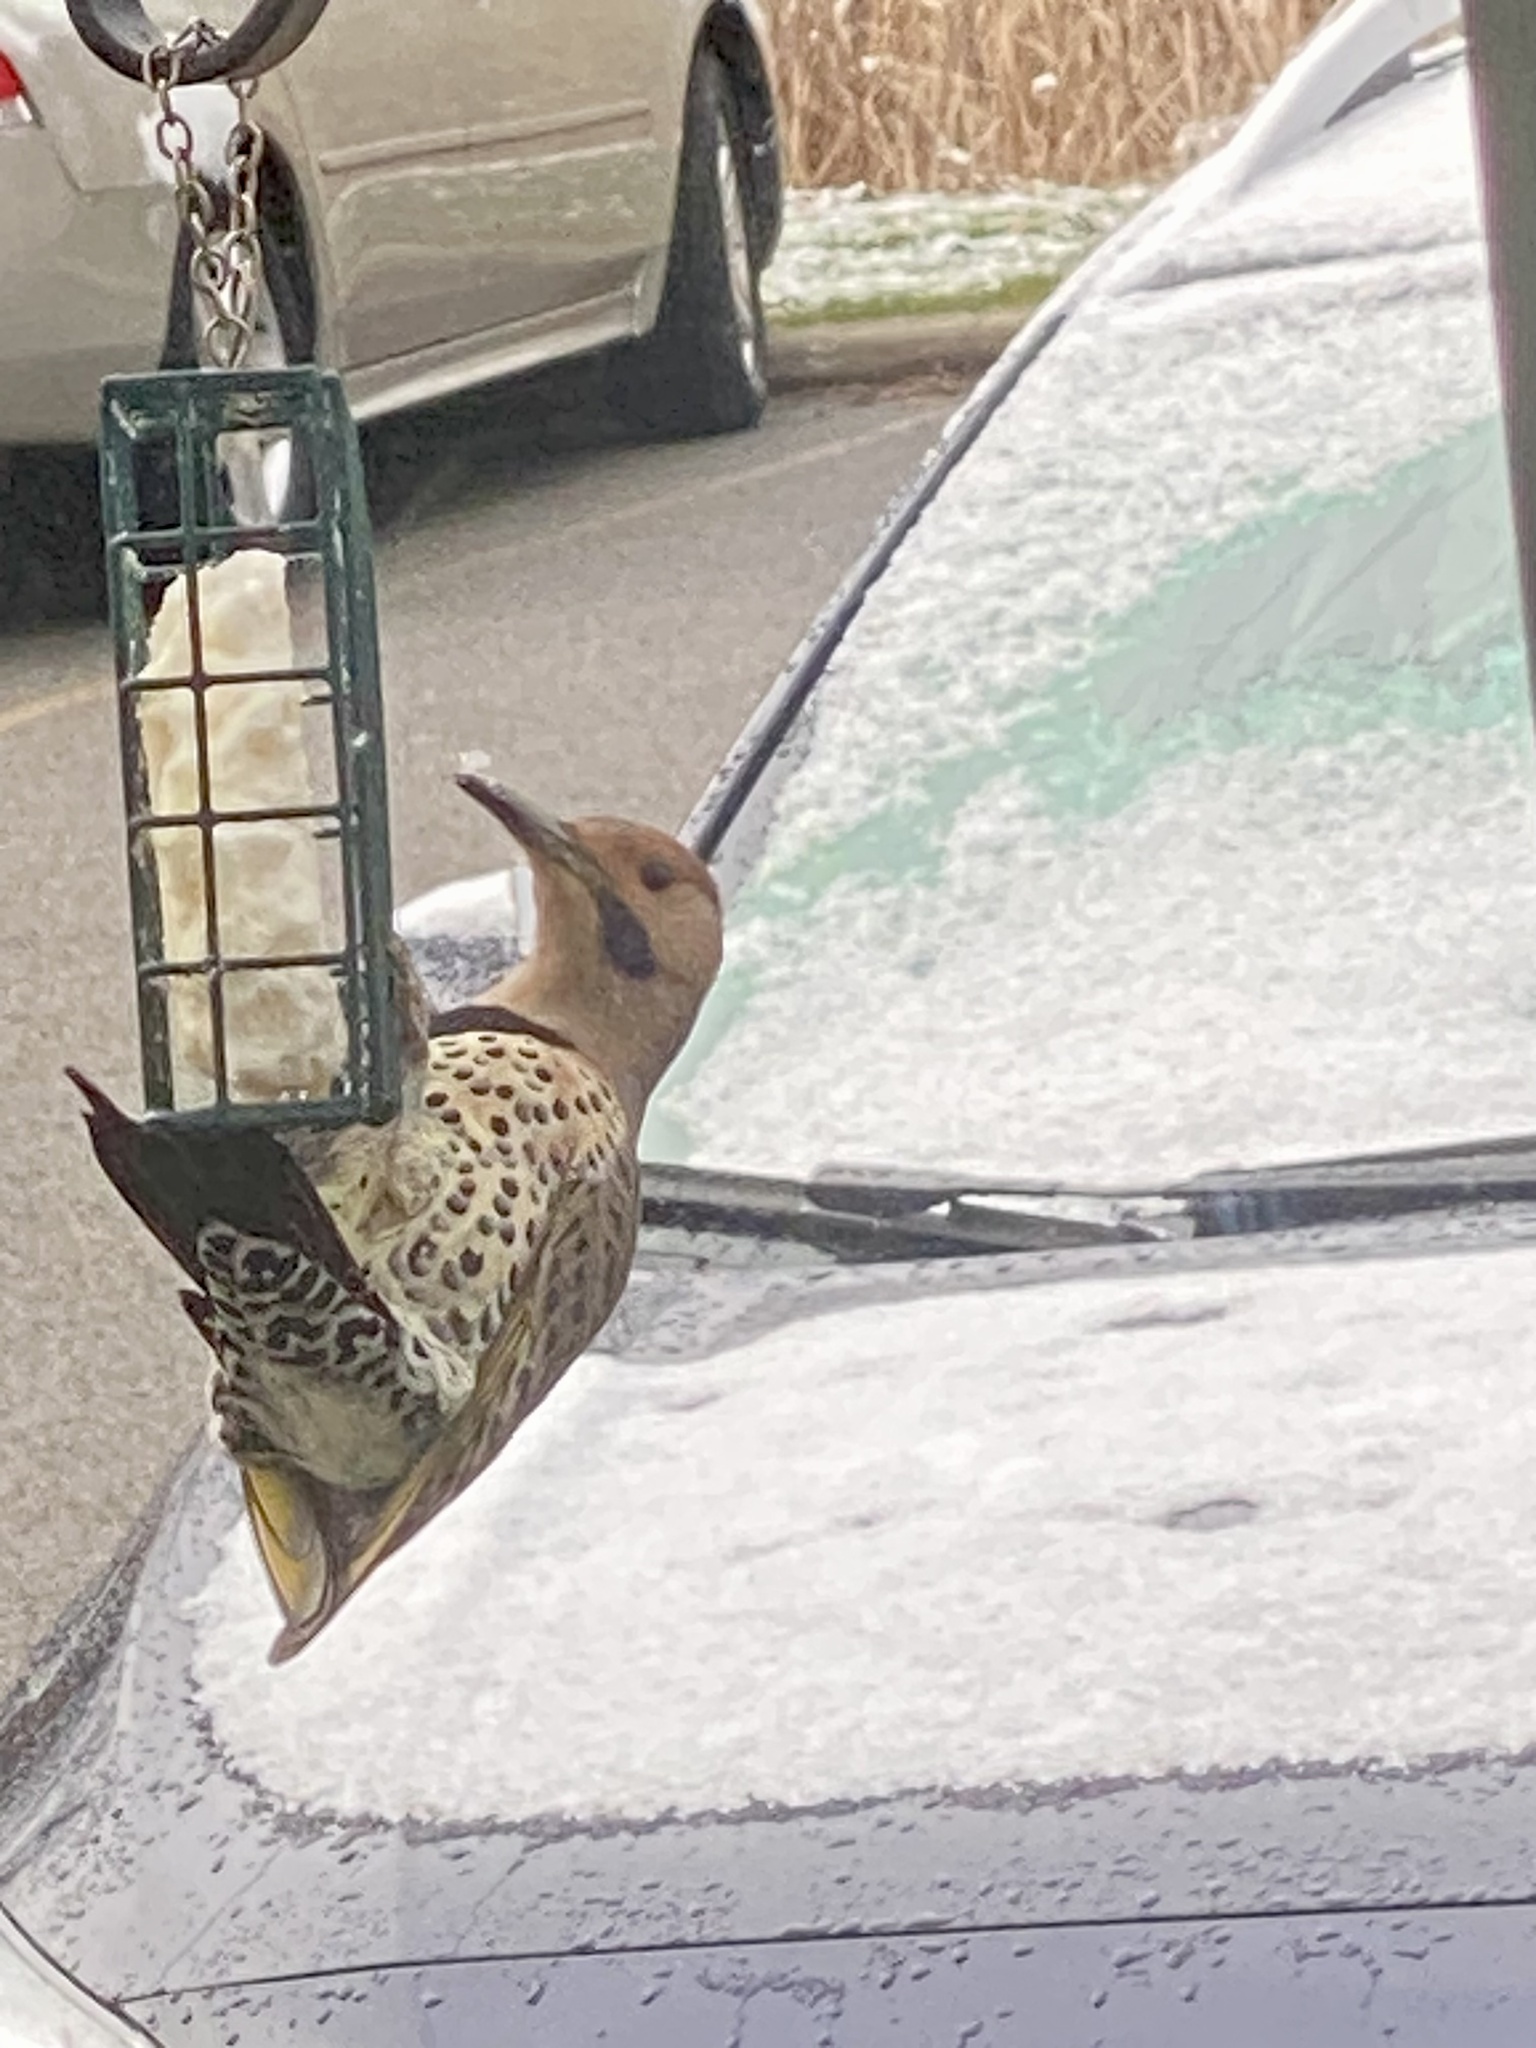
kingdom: Animalia
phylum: Chordata
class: Aves
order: Piciformes
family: Picidae
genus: Colaptes
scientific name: Colaptes auratus
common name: Northern flicker
